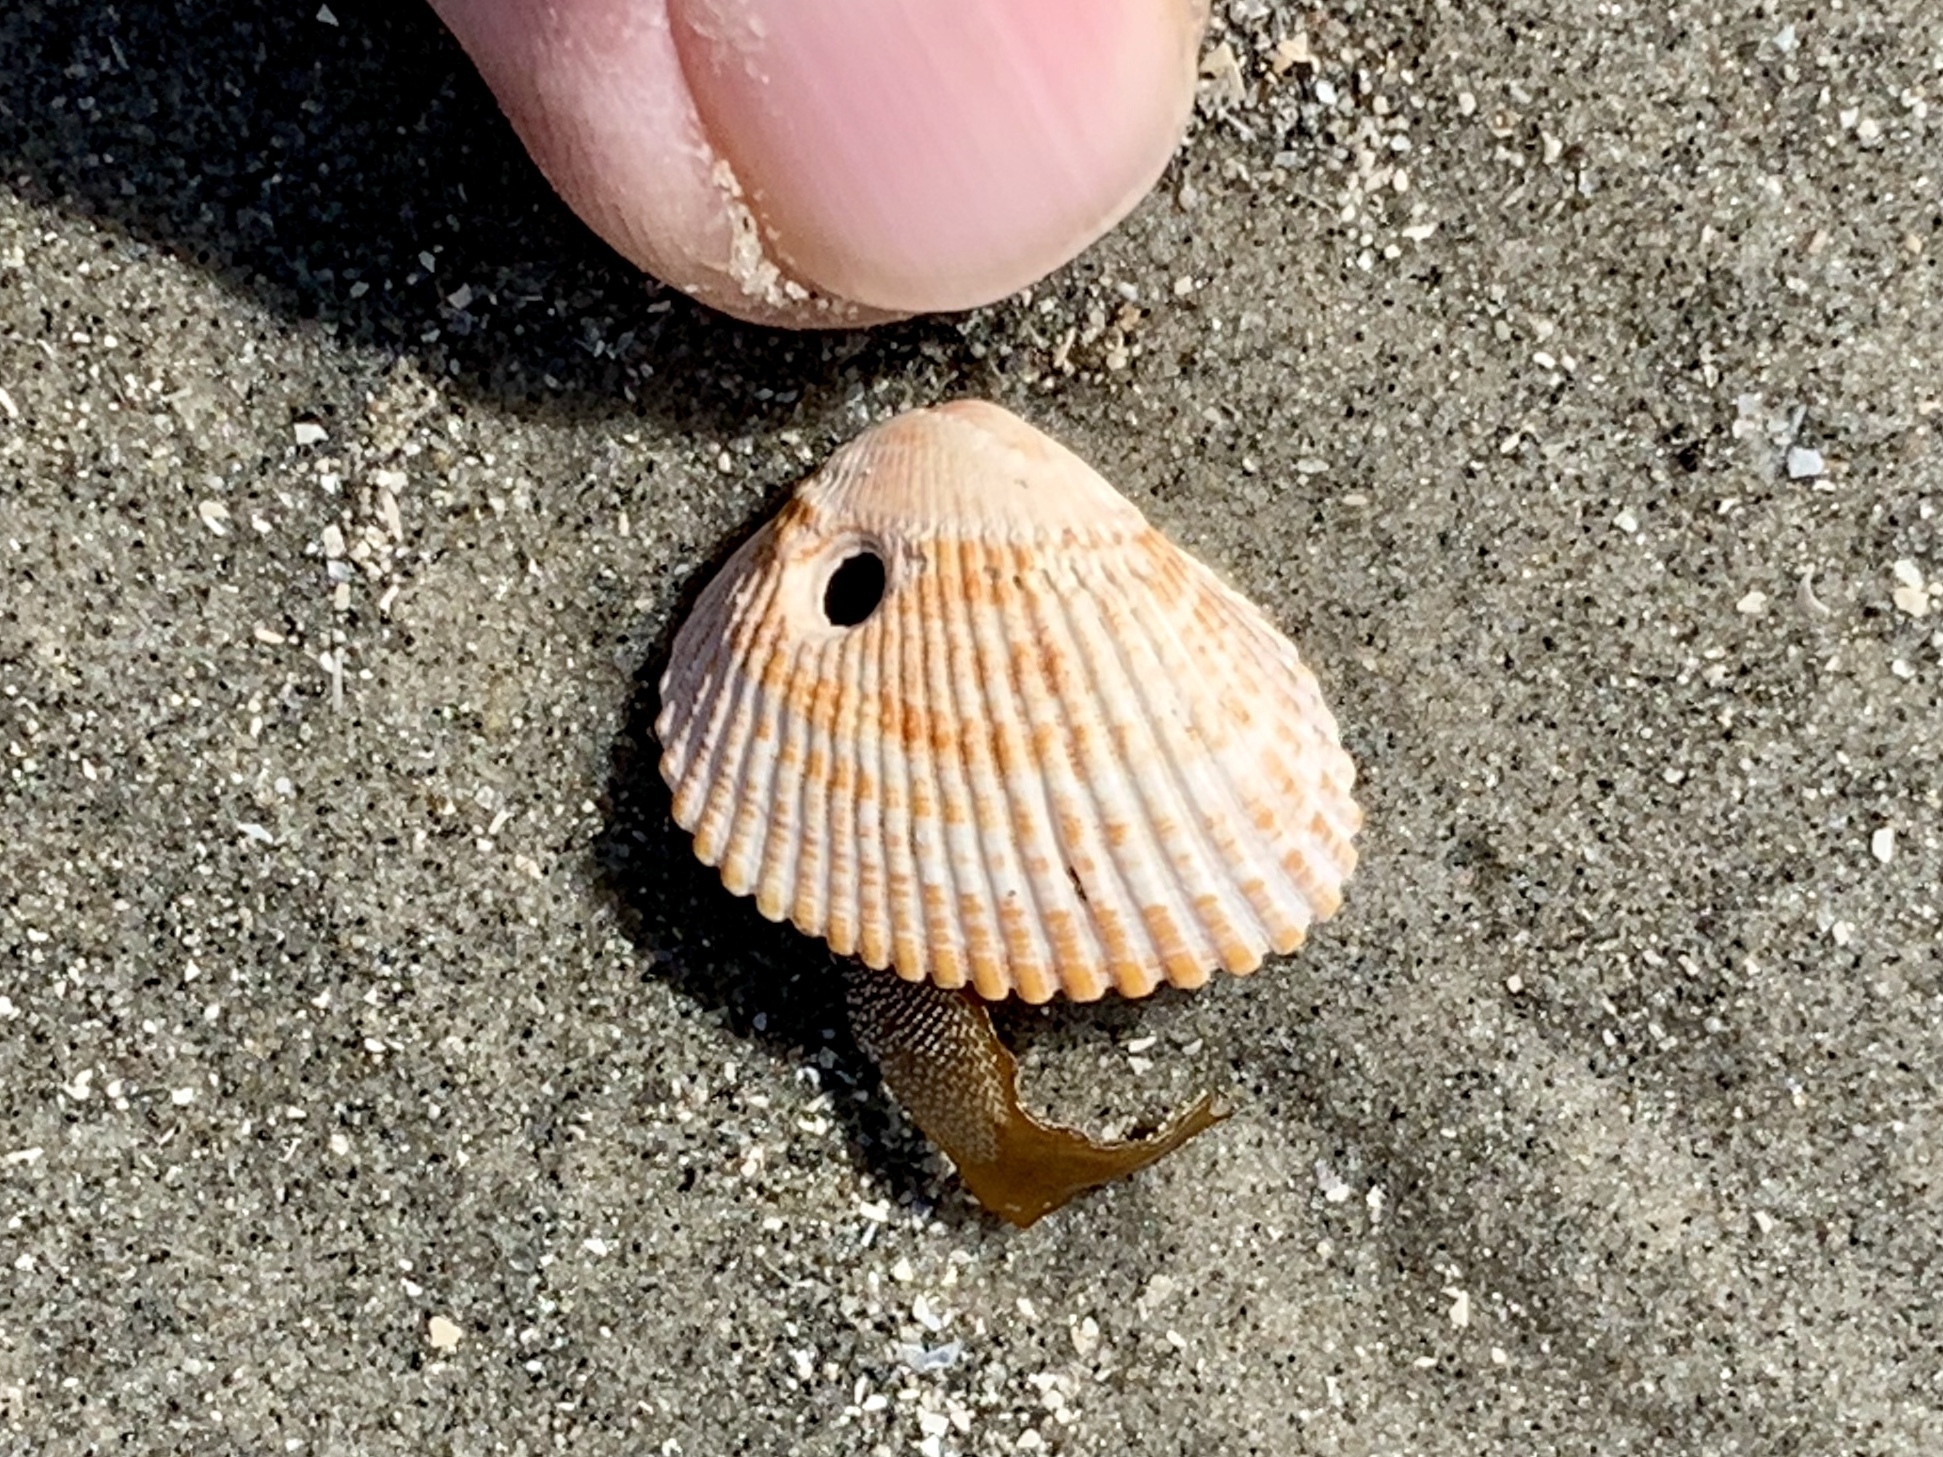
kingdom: Animalia
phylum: Mollusca
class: Bivalvia
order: Arcida
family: Arcidae
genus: Lunarca
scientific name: Lunarca ovalis
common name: Blood ark
